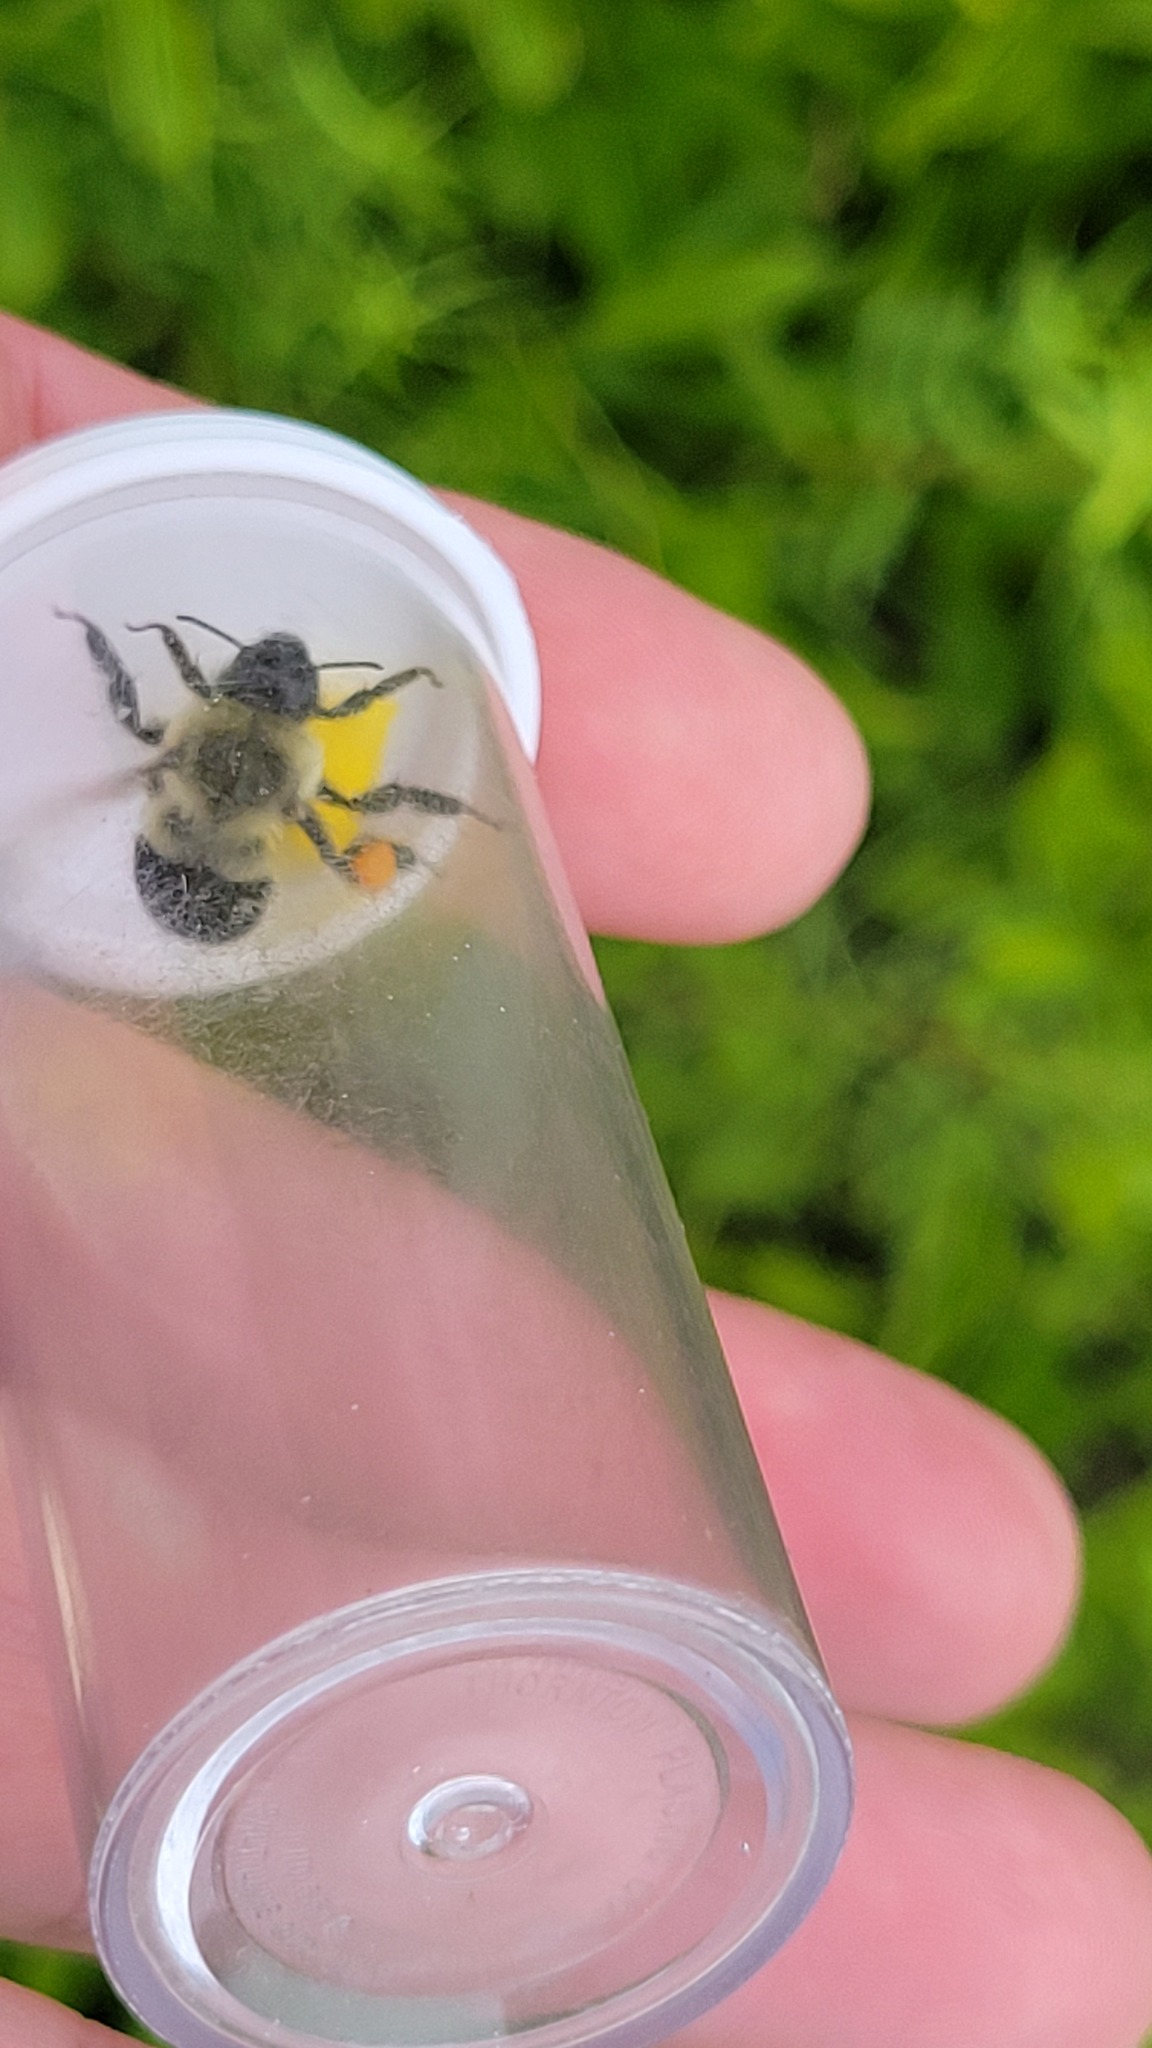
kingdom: Animalia
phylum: Arthropoda
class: Insecta
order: Hymenoptera
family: Apidae
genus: Bombus
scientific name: Bombus impatiens
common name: Common eastern bumble bee
